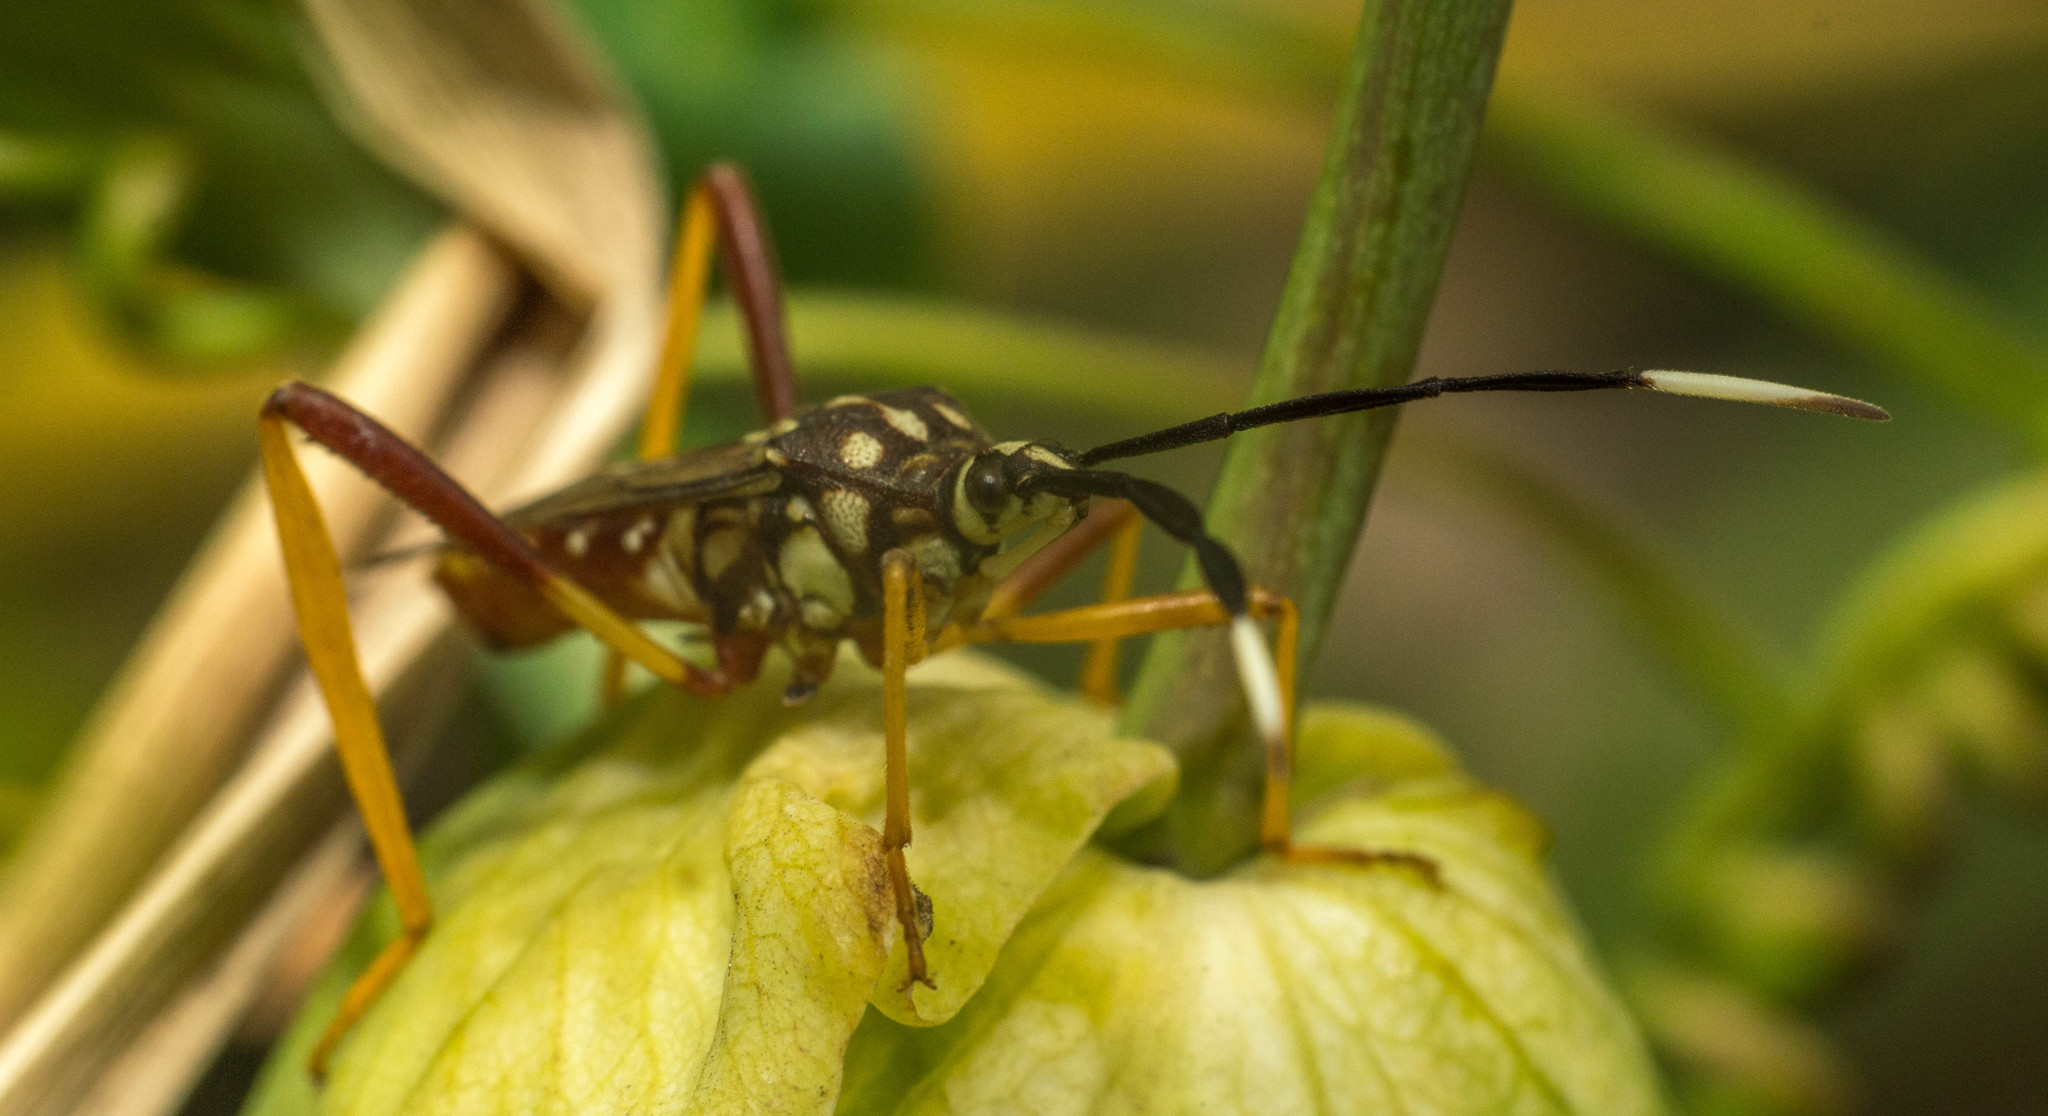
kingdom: Animalia
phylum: Arthropoda
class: Insecta
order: Hemiptera
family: Coreidae
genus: Holhymenia
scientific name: Holhymenia histrio
